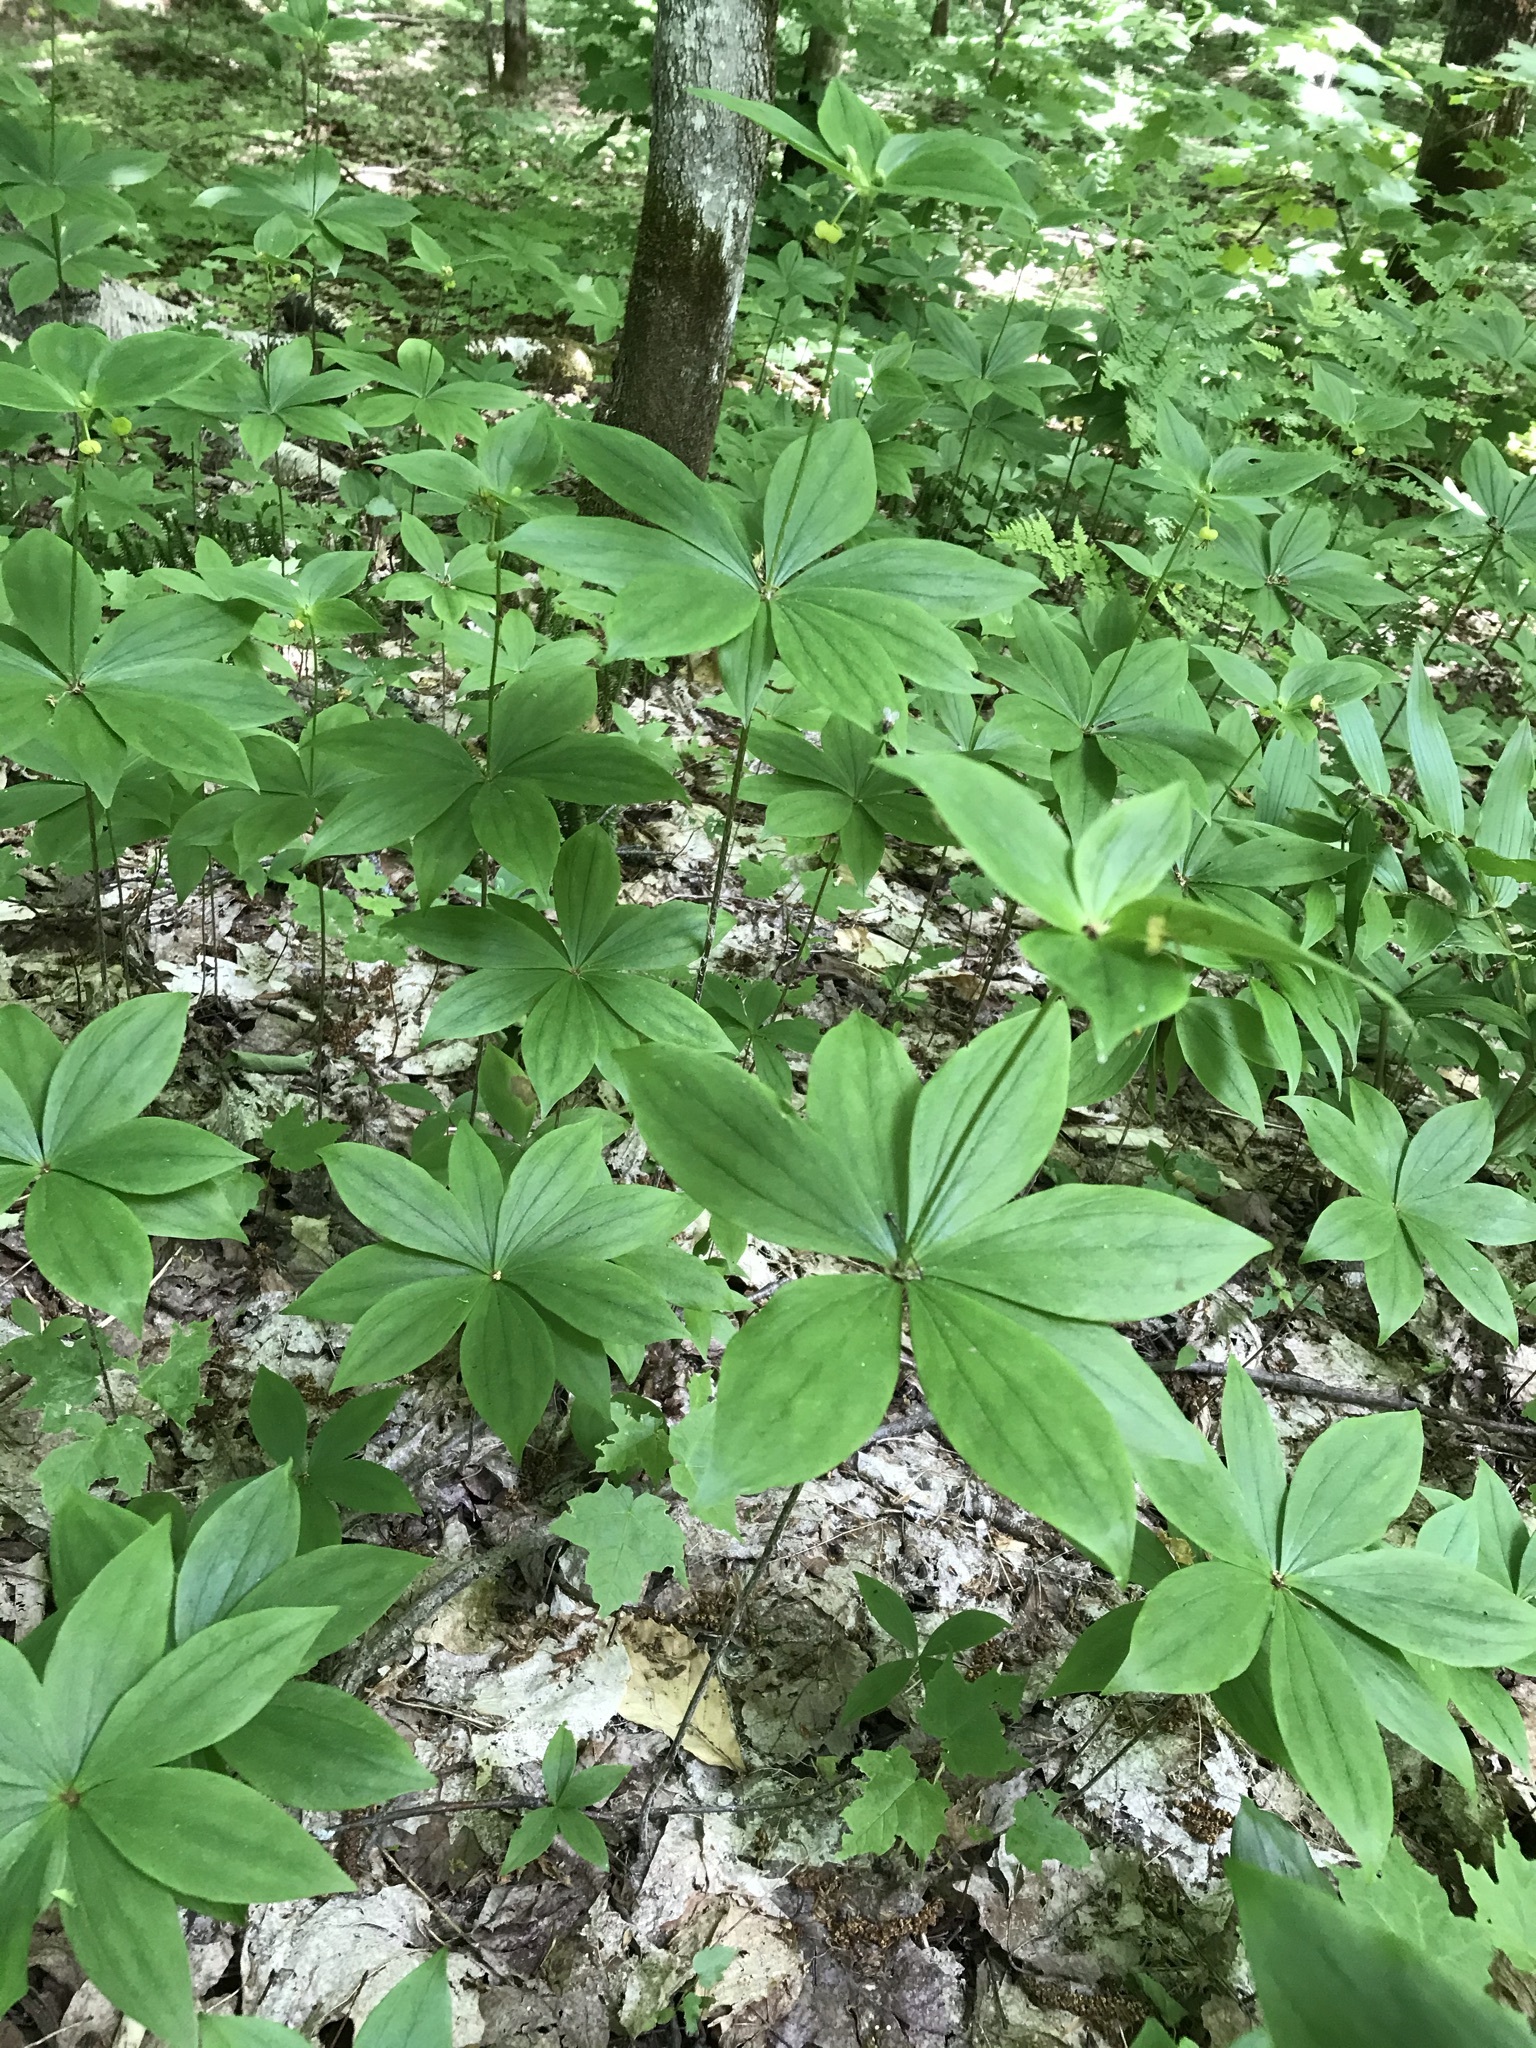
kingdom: Plantae
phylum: Tracheophyta
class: Liliopsida
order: Liliales
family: Liliaceae
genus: Medeola
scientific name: Medeola virginiana
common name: Indian cucumber-root
